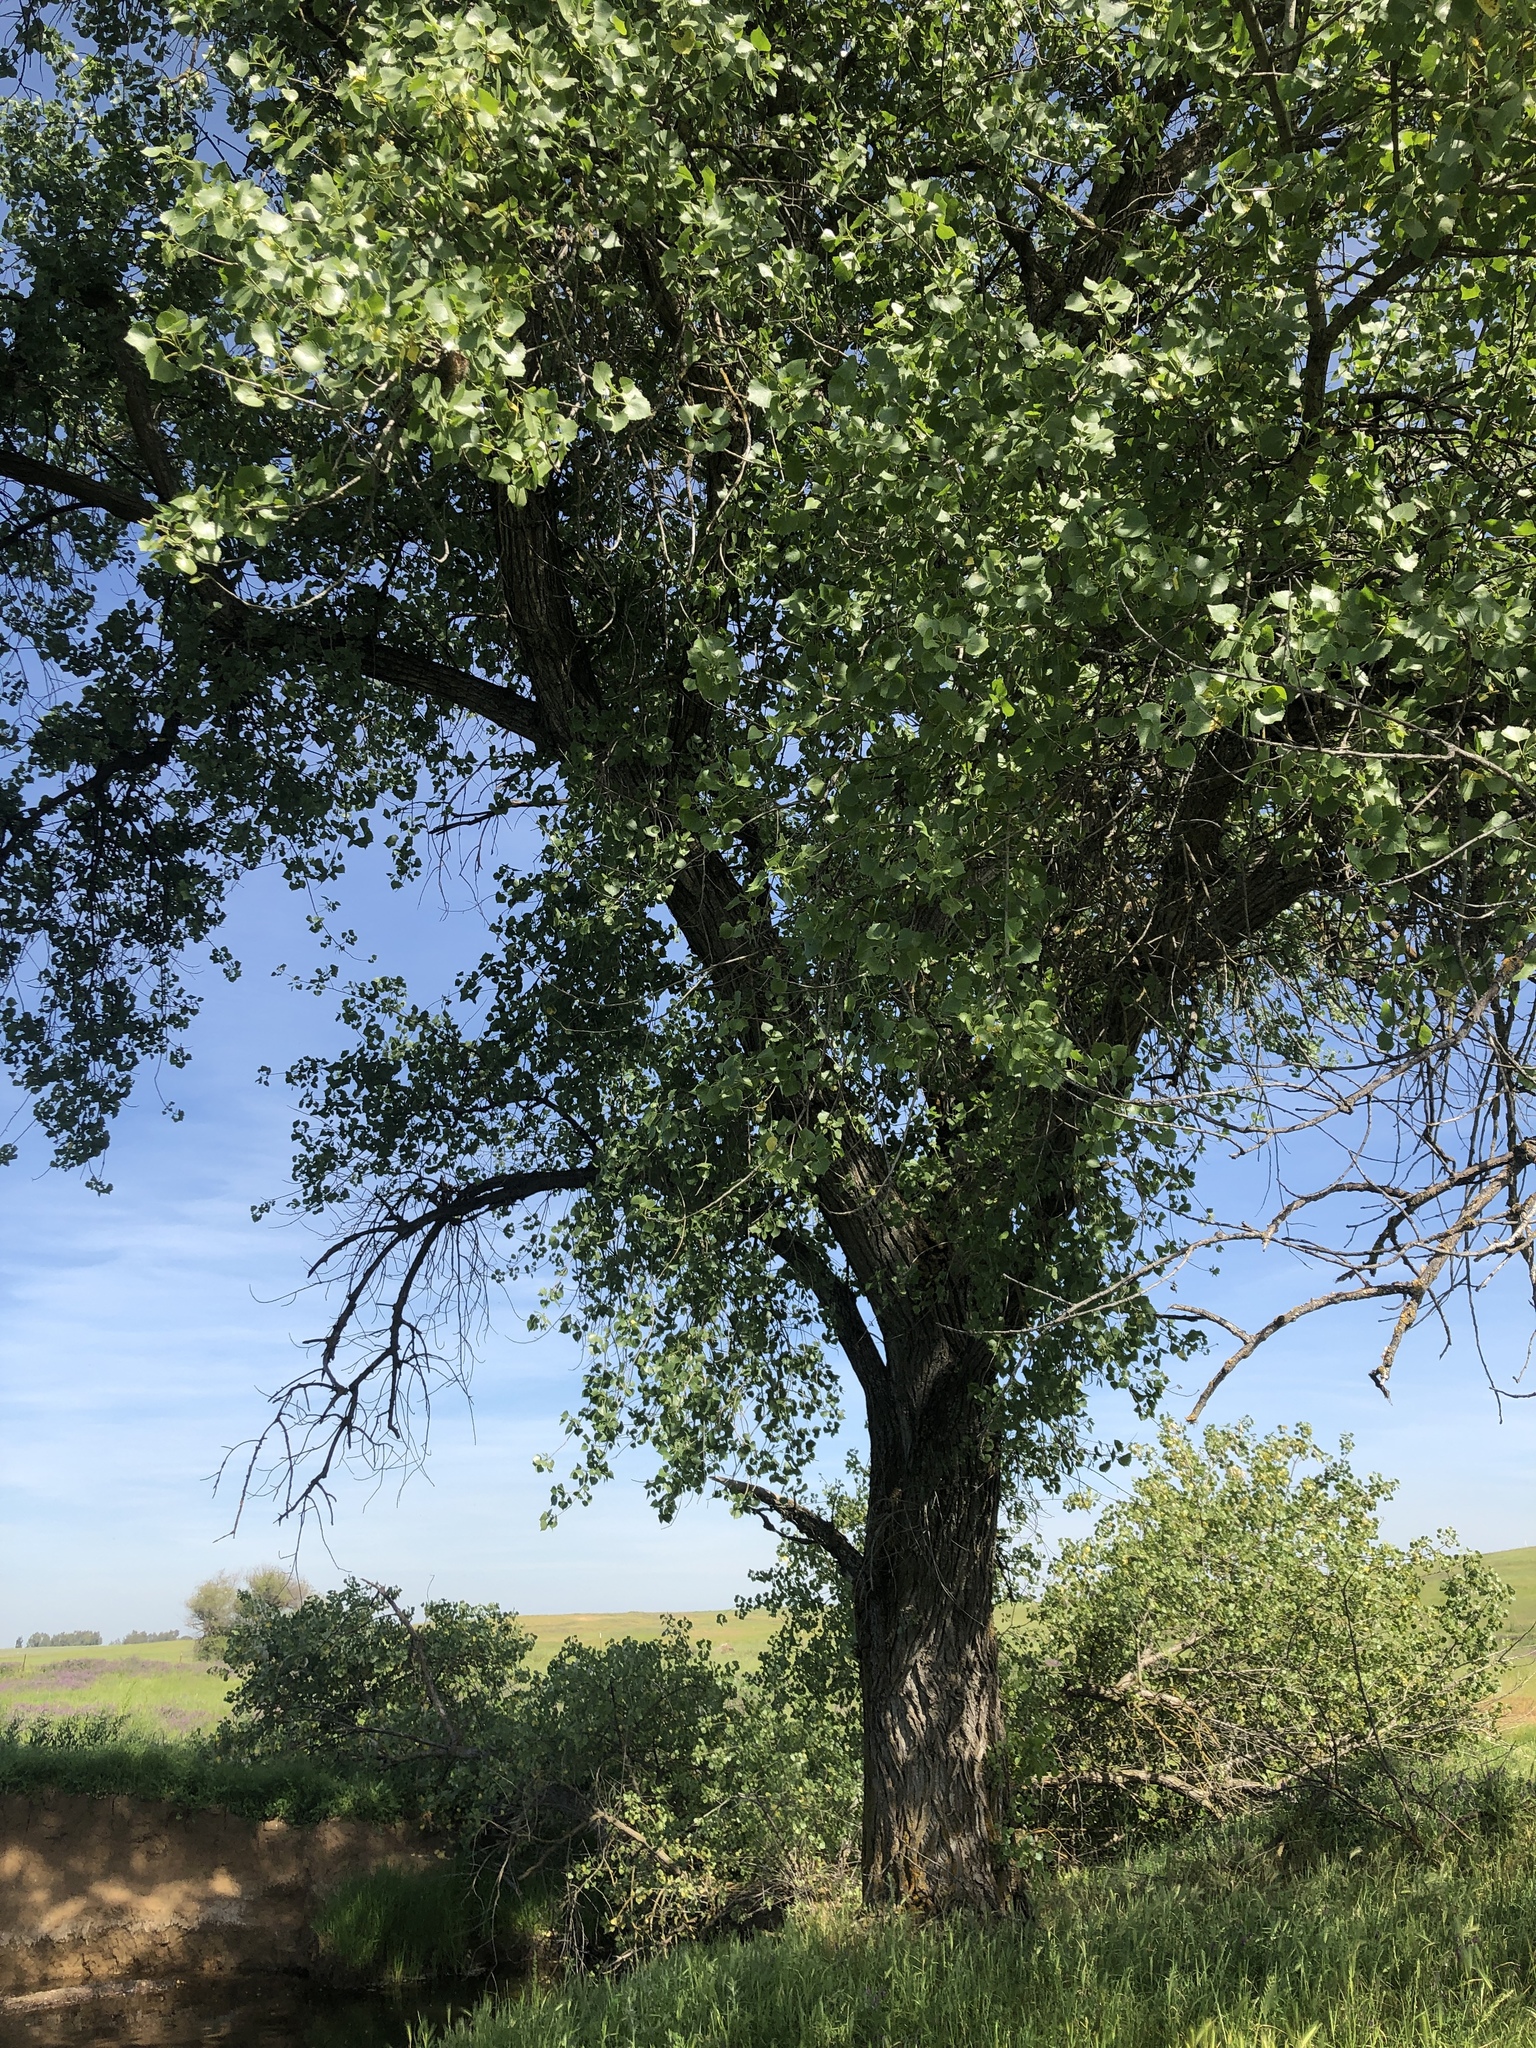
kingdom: Plantae
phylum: Tracheophyta
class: Magnoliopsida
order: Malpighiales
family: Salicaceae
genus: Populus
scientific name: Populus fremontii
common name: Fremont's cottonwood
